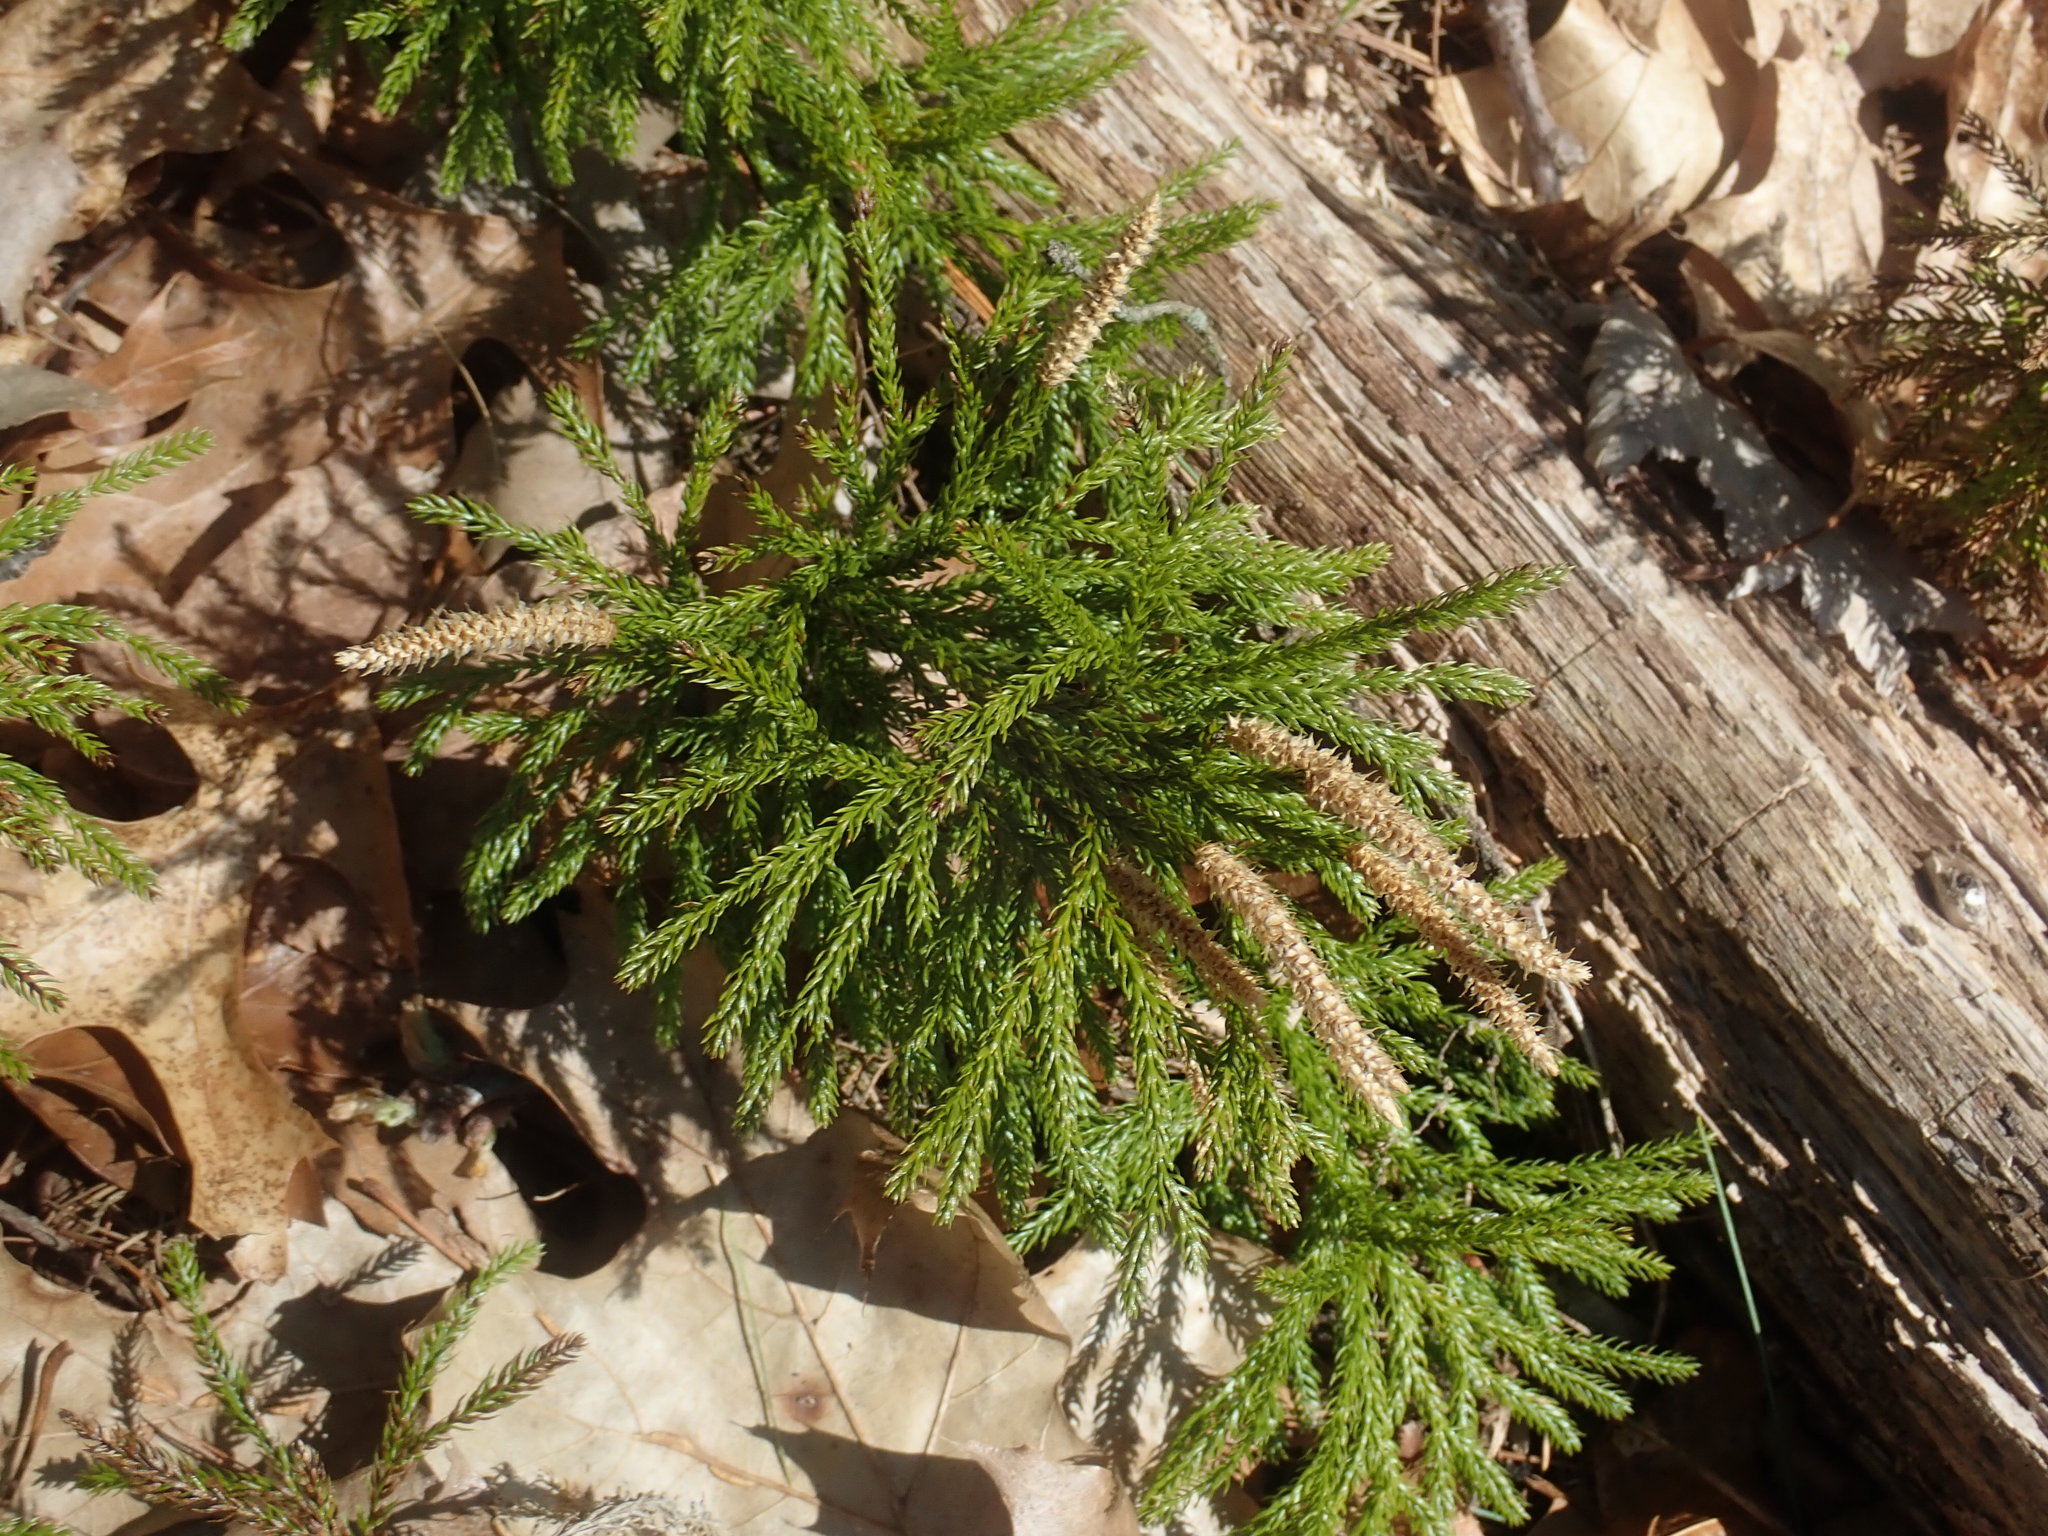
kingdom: Plantae
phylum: Tracheophyta
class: Lycopodiopsida
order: Lycopodiales
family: Lycopodiaceae
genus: Dendrolycopodium
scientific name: Dendrolycopodium hickeyi
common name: Hickey's clubmoss
